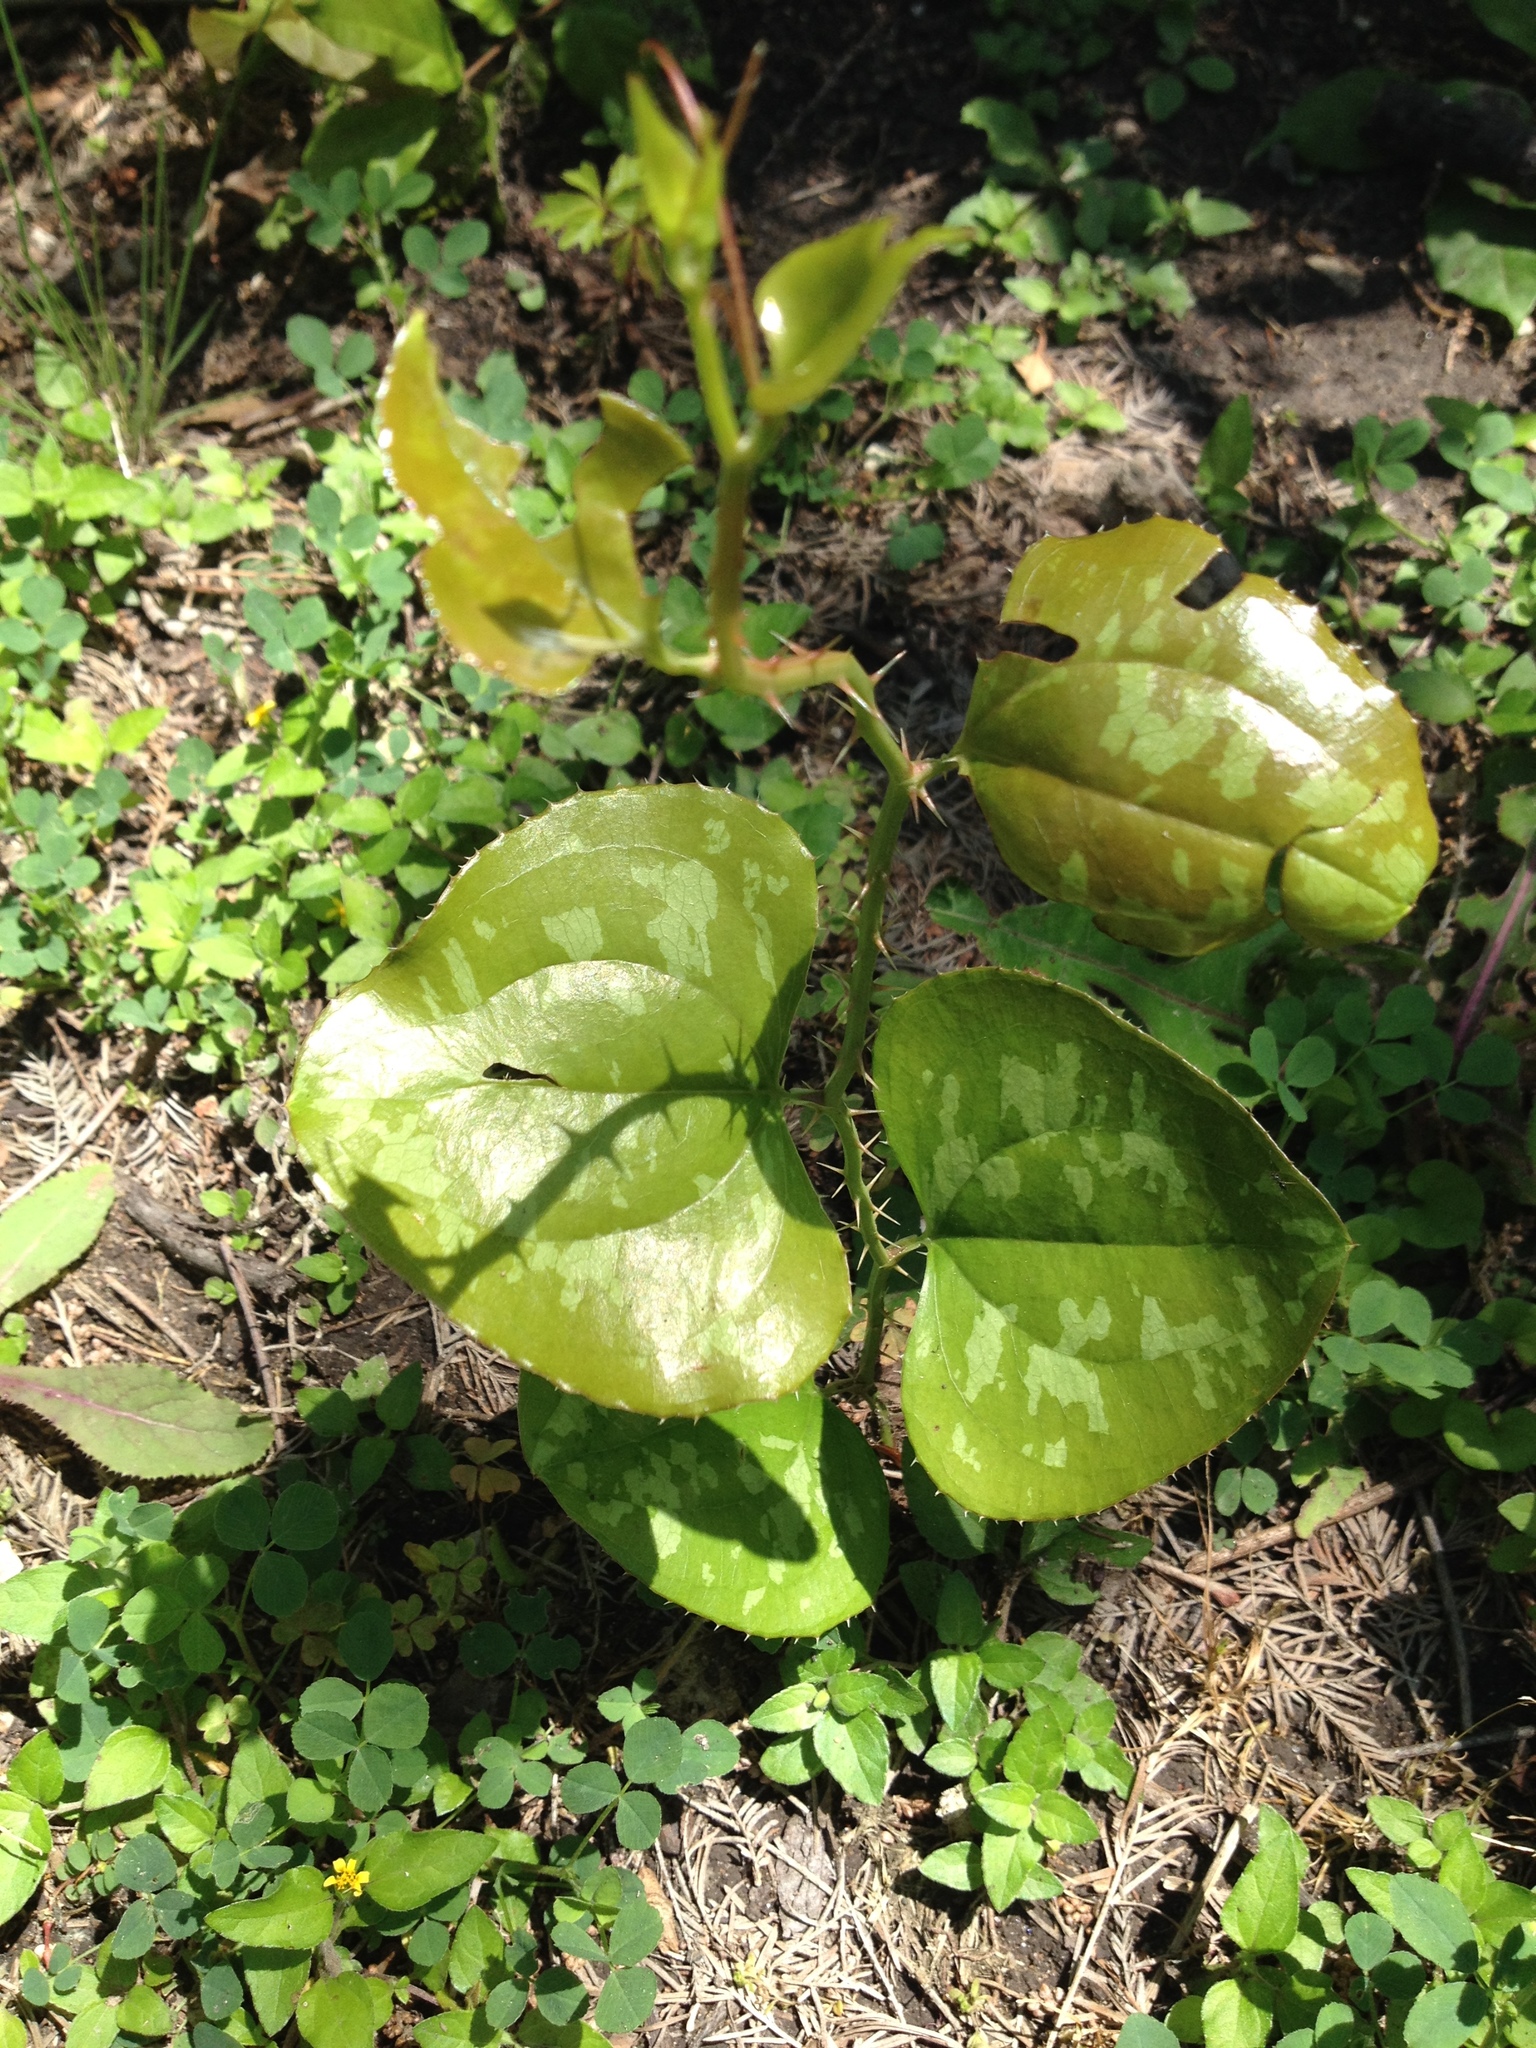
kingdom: Plantae
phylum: Tracheophyta
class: Liliopsida
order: Liliales
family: Smilacaceae
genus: Smilax
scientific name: Smilax bona-nox
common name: Catbrier
